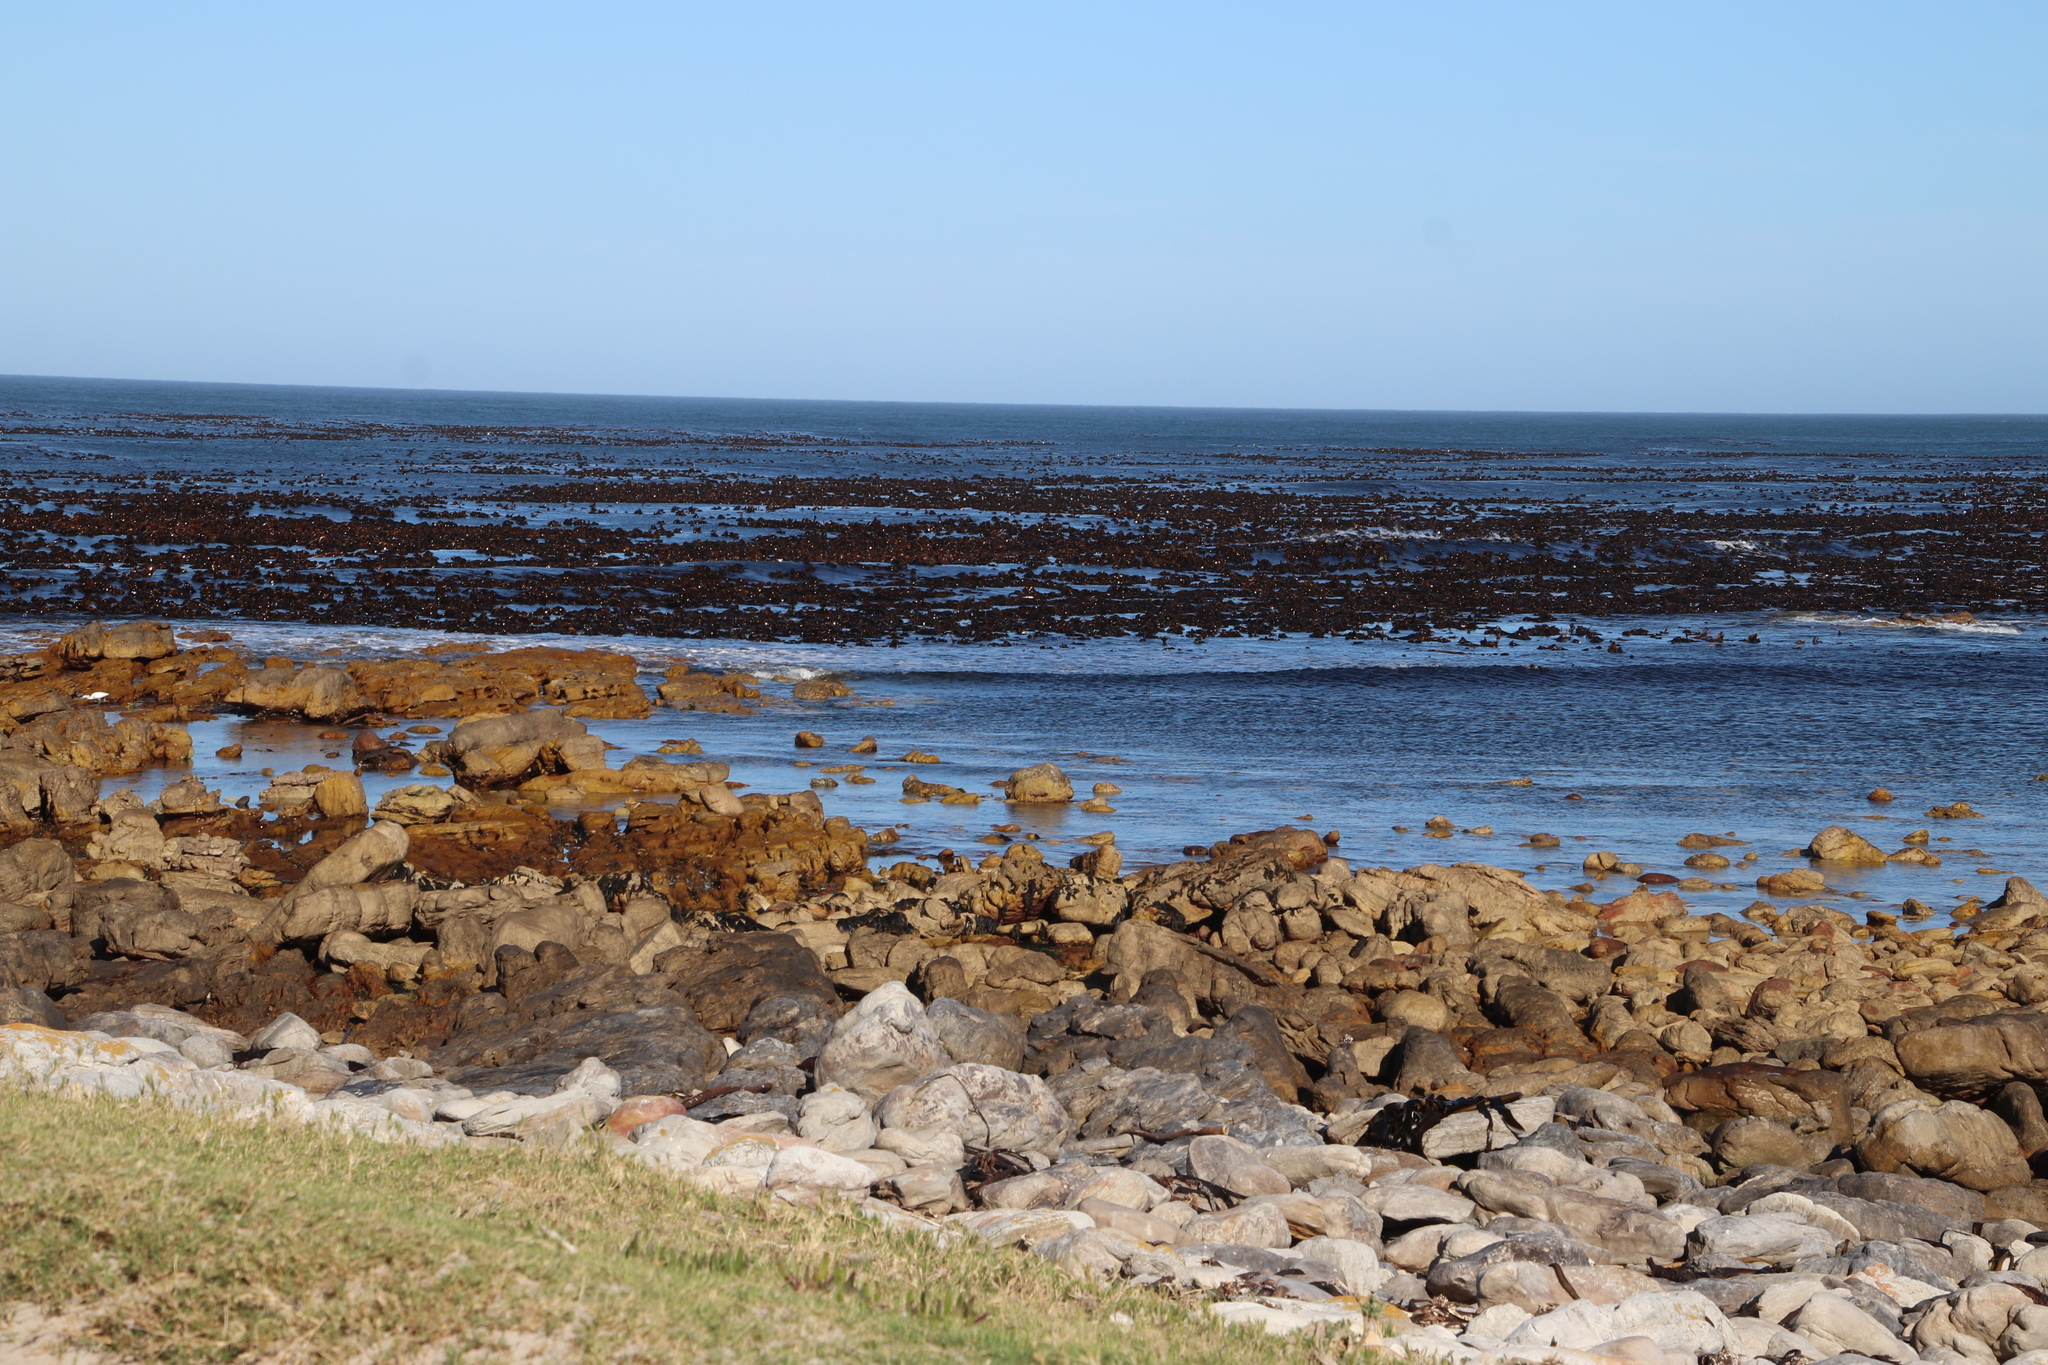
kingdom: Chromista
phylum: Ochrophyta
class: Phaeophyceae
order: Laminariales
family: Lessoniaceae
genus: Ecklonia
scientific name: Ecklonia
